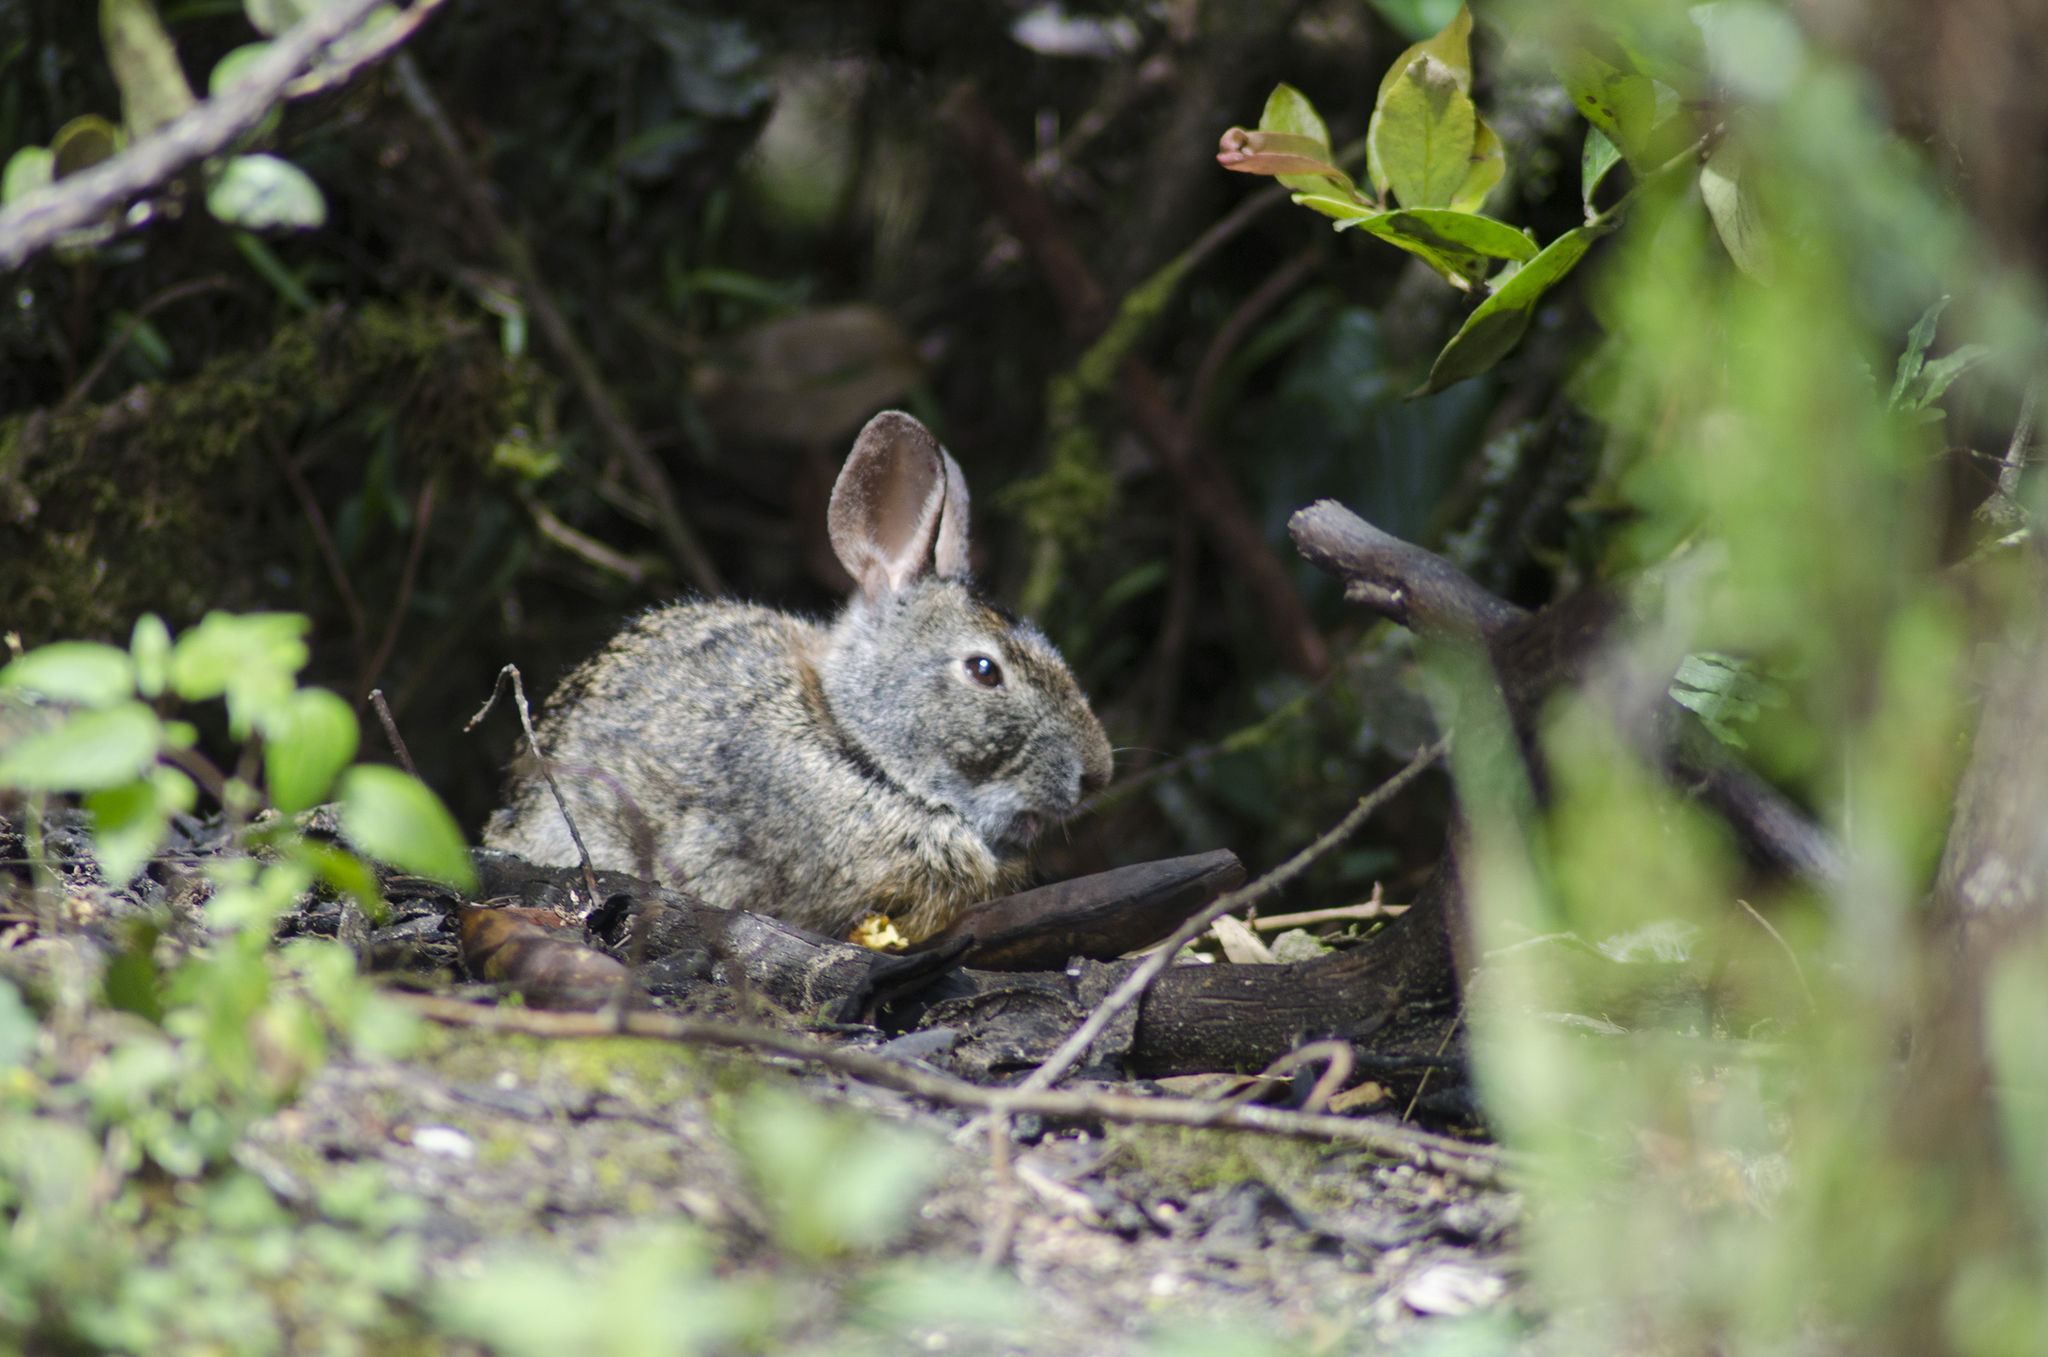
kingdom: Animalia
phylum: Chordata
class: Mammalia
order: Lagomorpha
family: Leporidae
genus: Sylvilagus
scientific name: Sylvilagus andinus
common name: Andean cottontail
